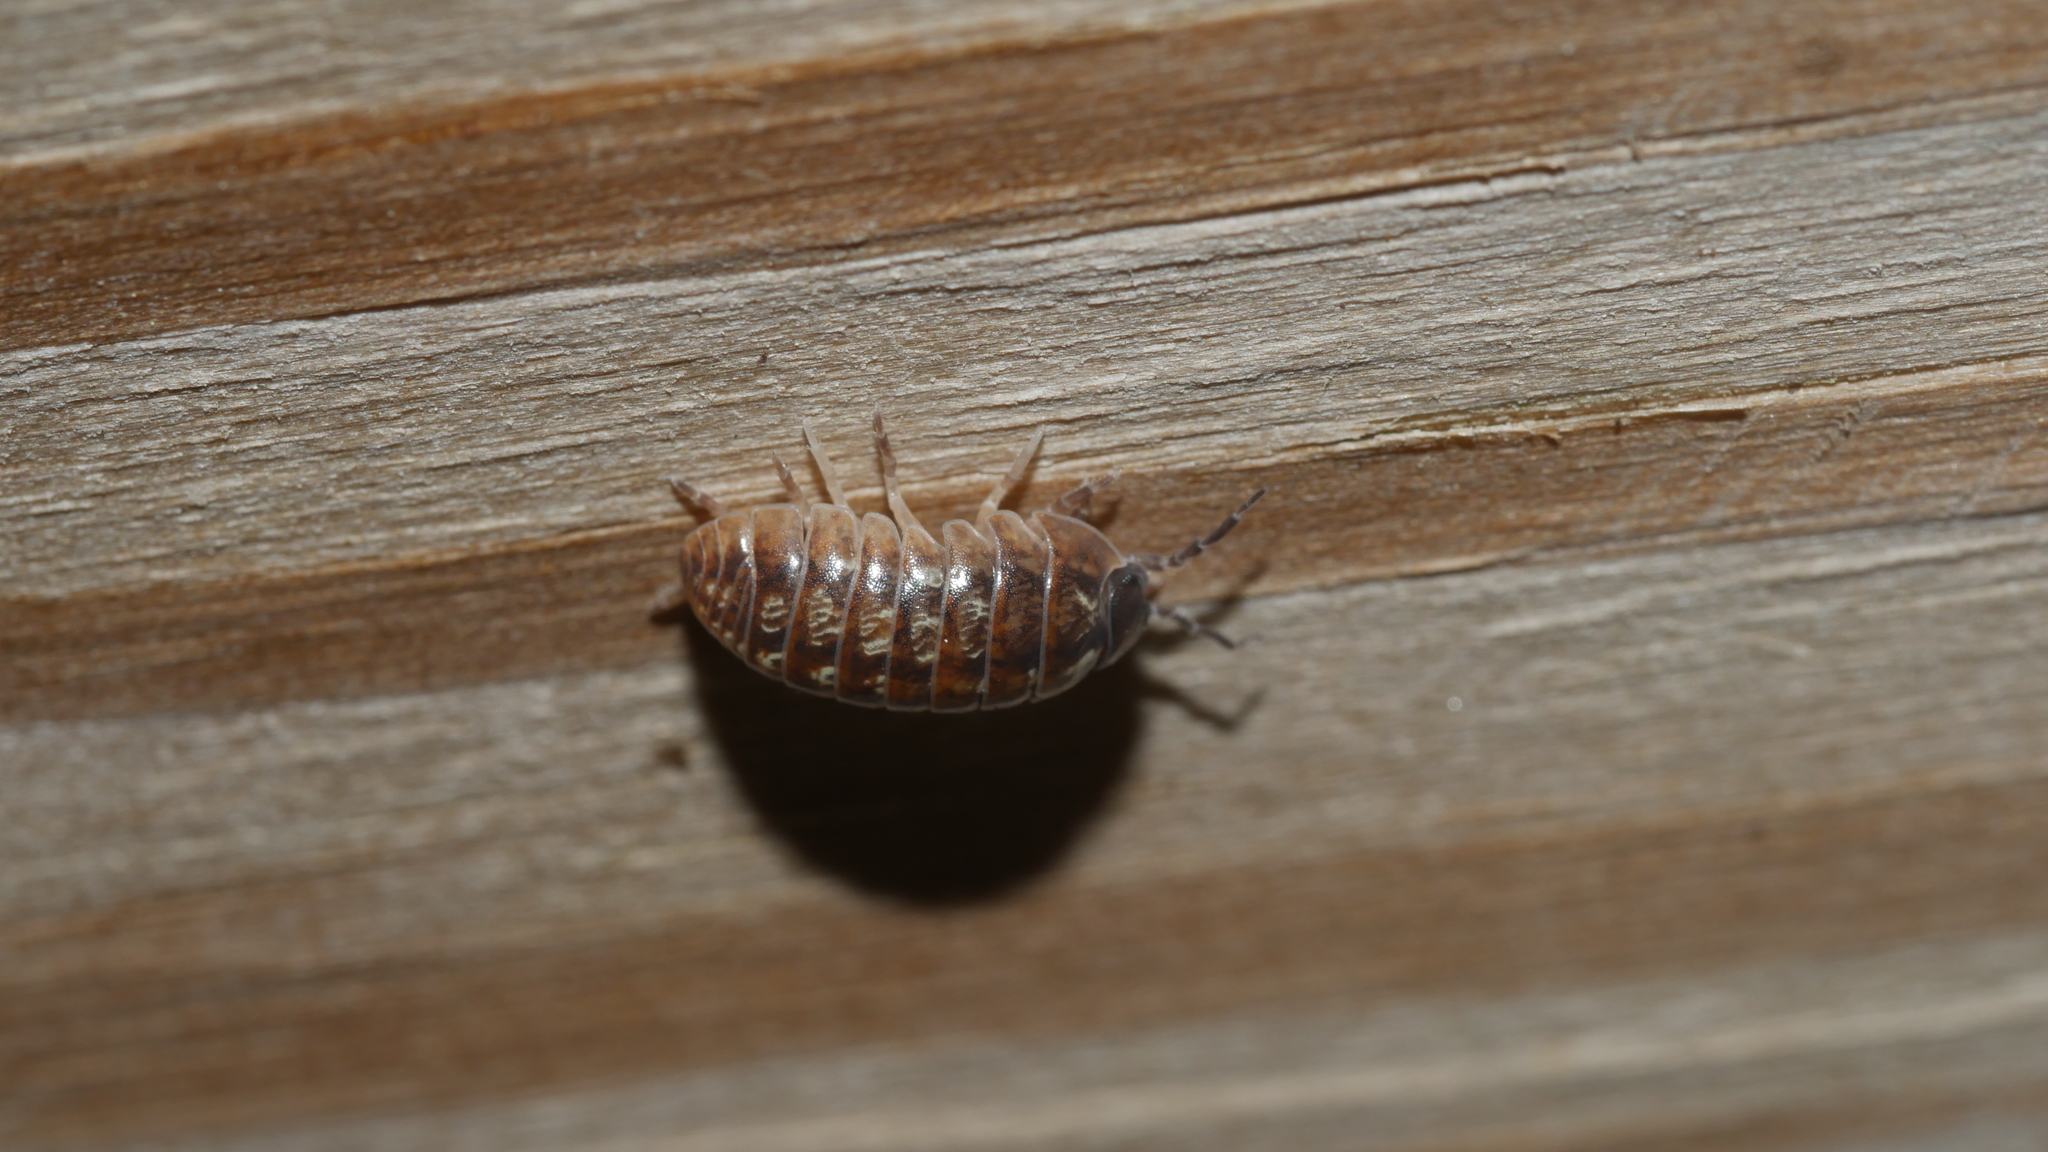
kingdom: Animalia
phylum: Arthropoda
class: Malacostraca
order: Isopoda
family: Armadillidiidae
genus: Armadillidium
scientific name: Armadillidium vulgare
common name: Common pill woodlouse
